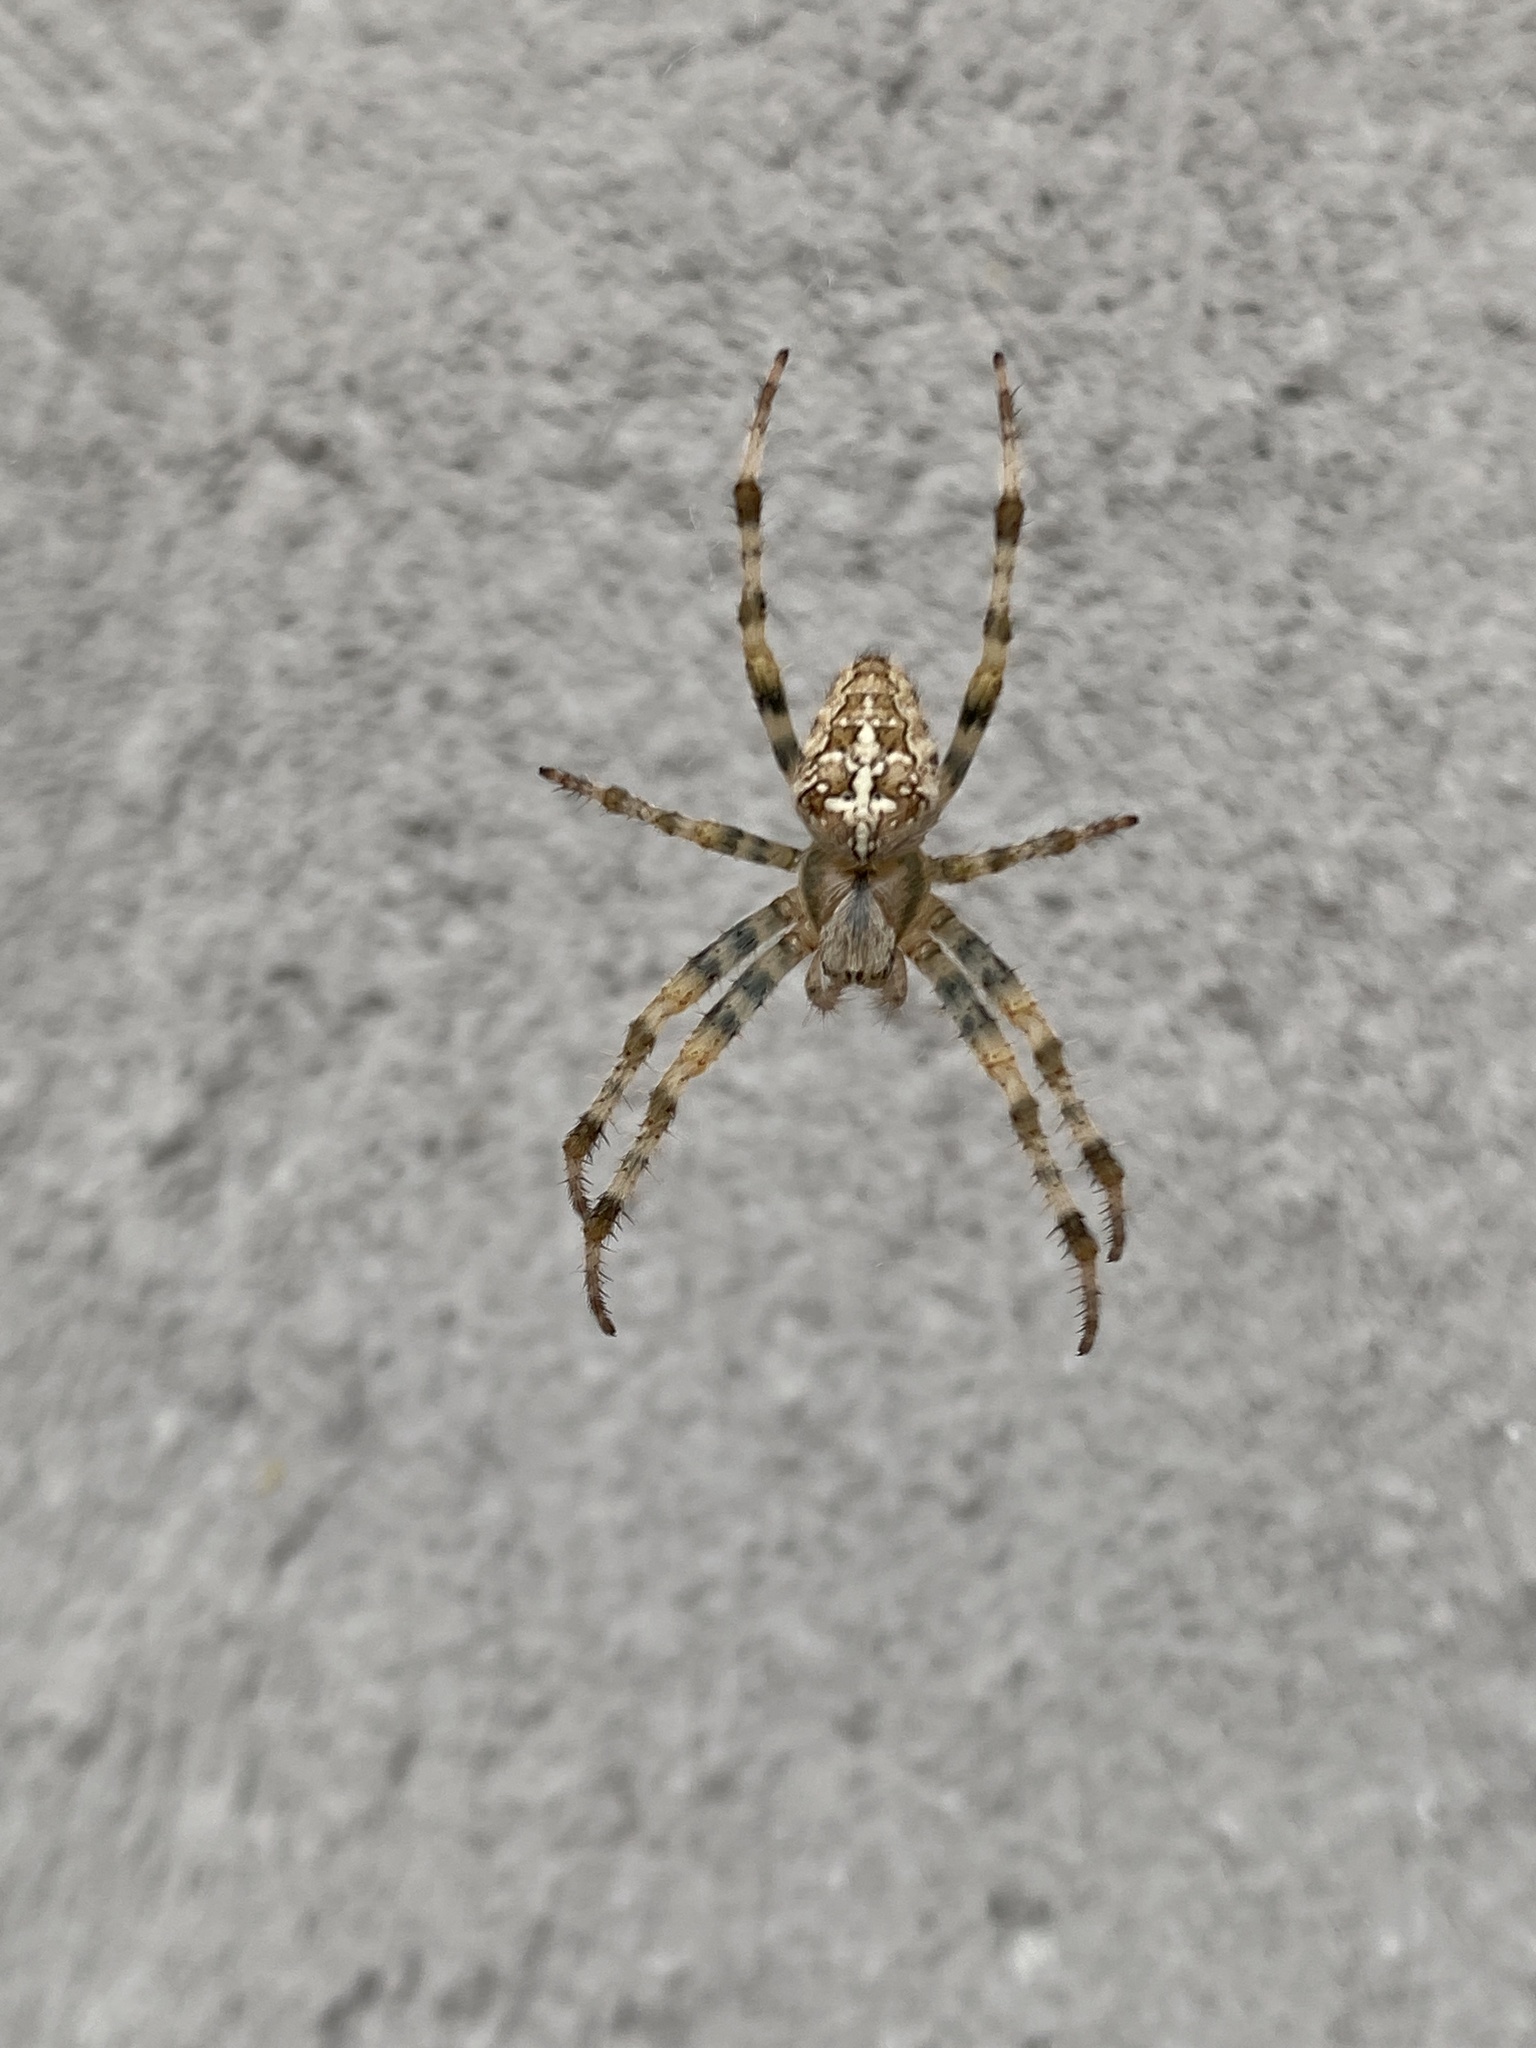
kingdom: Animalia
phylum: Arthropoda
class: Arachnida
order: Araneae
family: Araneidae
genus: Araneus
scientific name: Araneus diadematus
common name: Cross orbweaver
